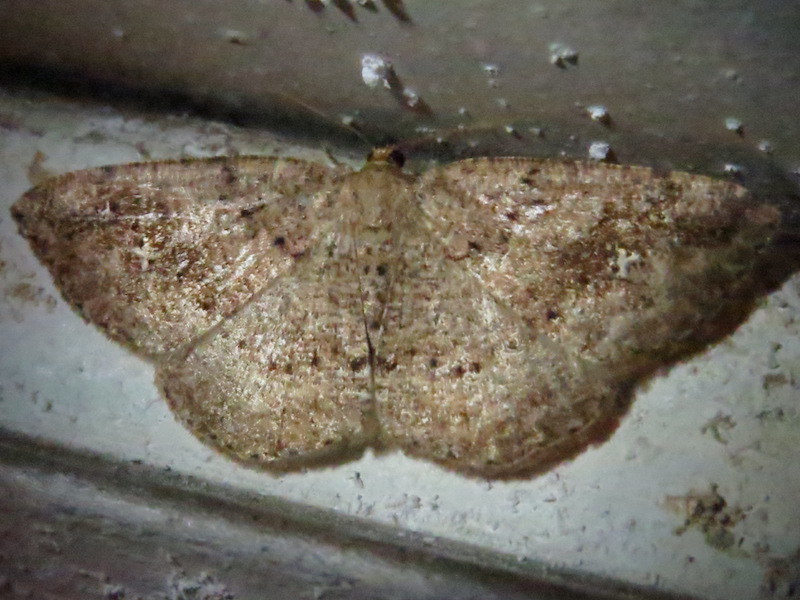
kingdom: Animalia
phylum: Arthropoda
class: Insecta
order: Lepidoptera
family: Geometridae
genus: Homochlodes
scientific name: Homochlodes fritillaria
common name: Pale homochlodes
